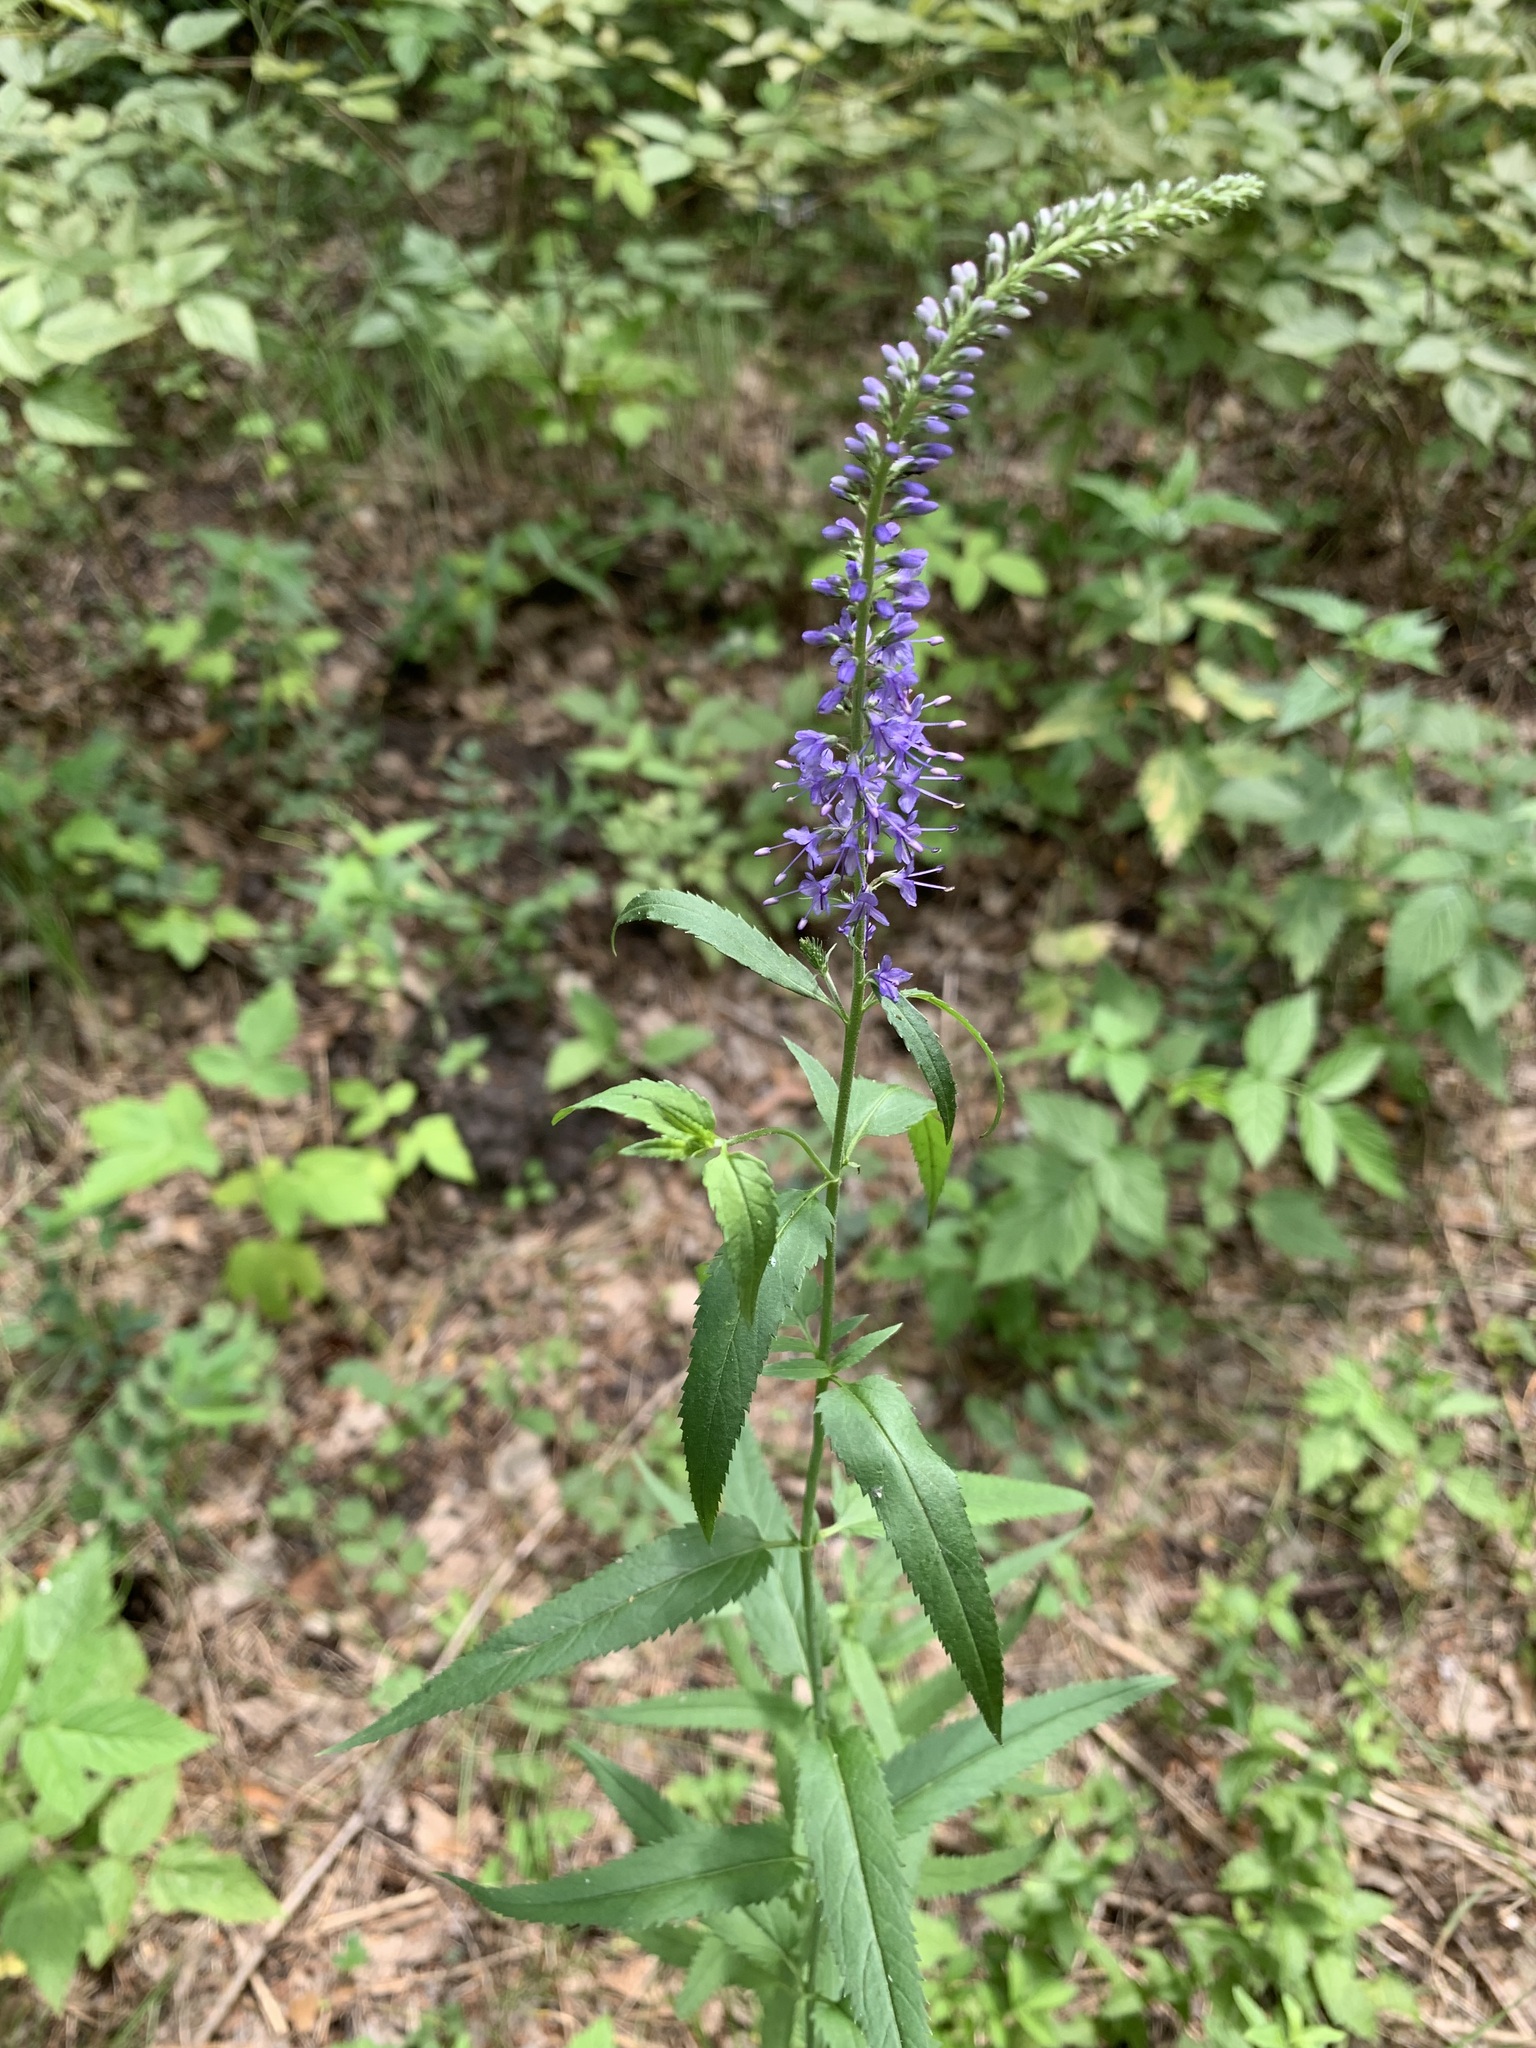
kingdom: Plantae
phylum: Tracheophyta
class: Magnoliopsida
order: Lamiales
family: Plantaginaceae
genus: Veronica
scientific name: Veronica longifolia
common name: Garden speedwell
